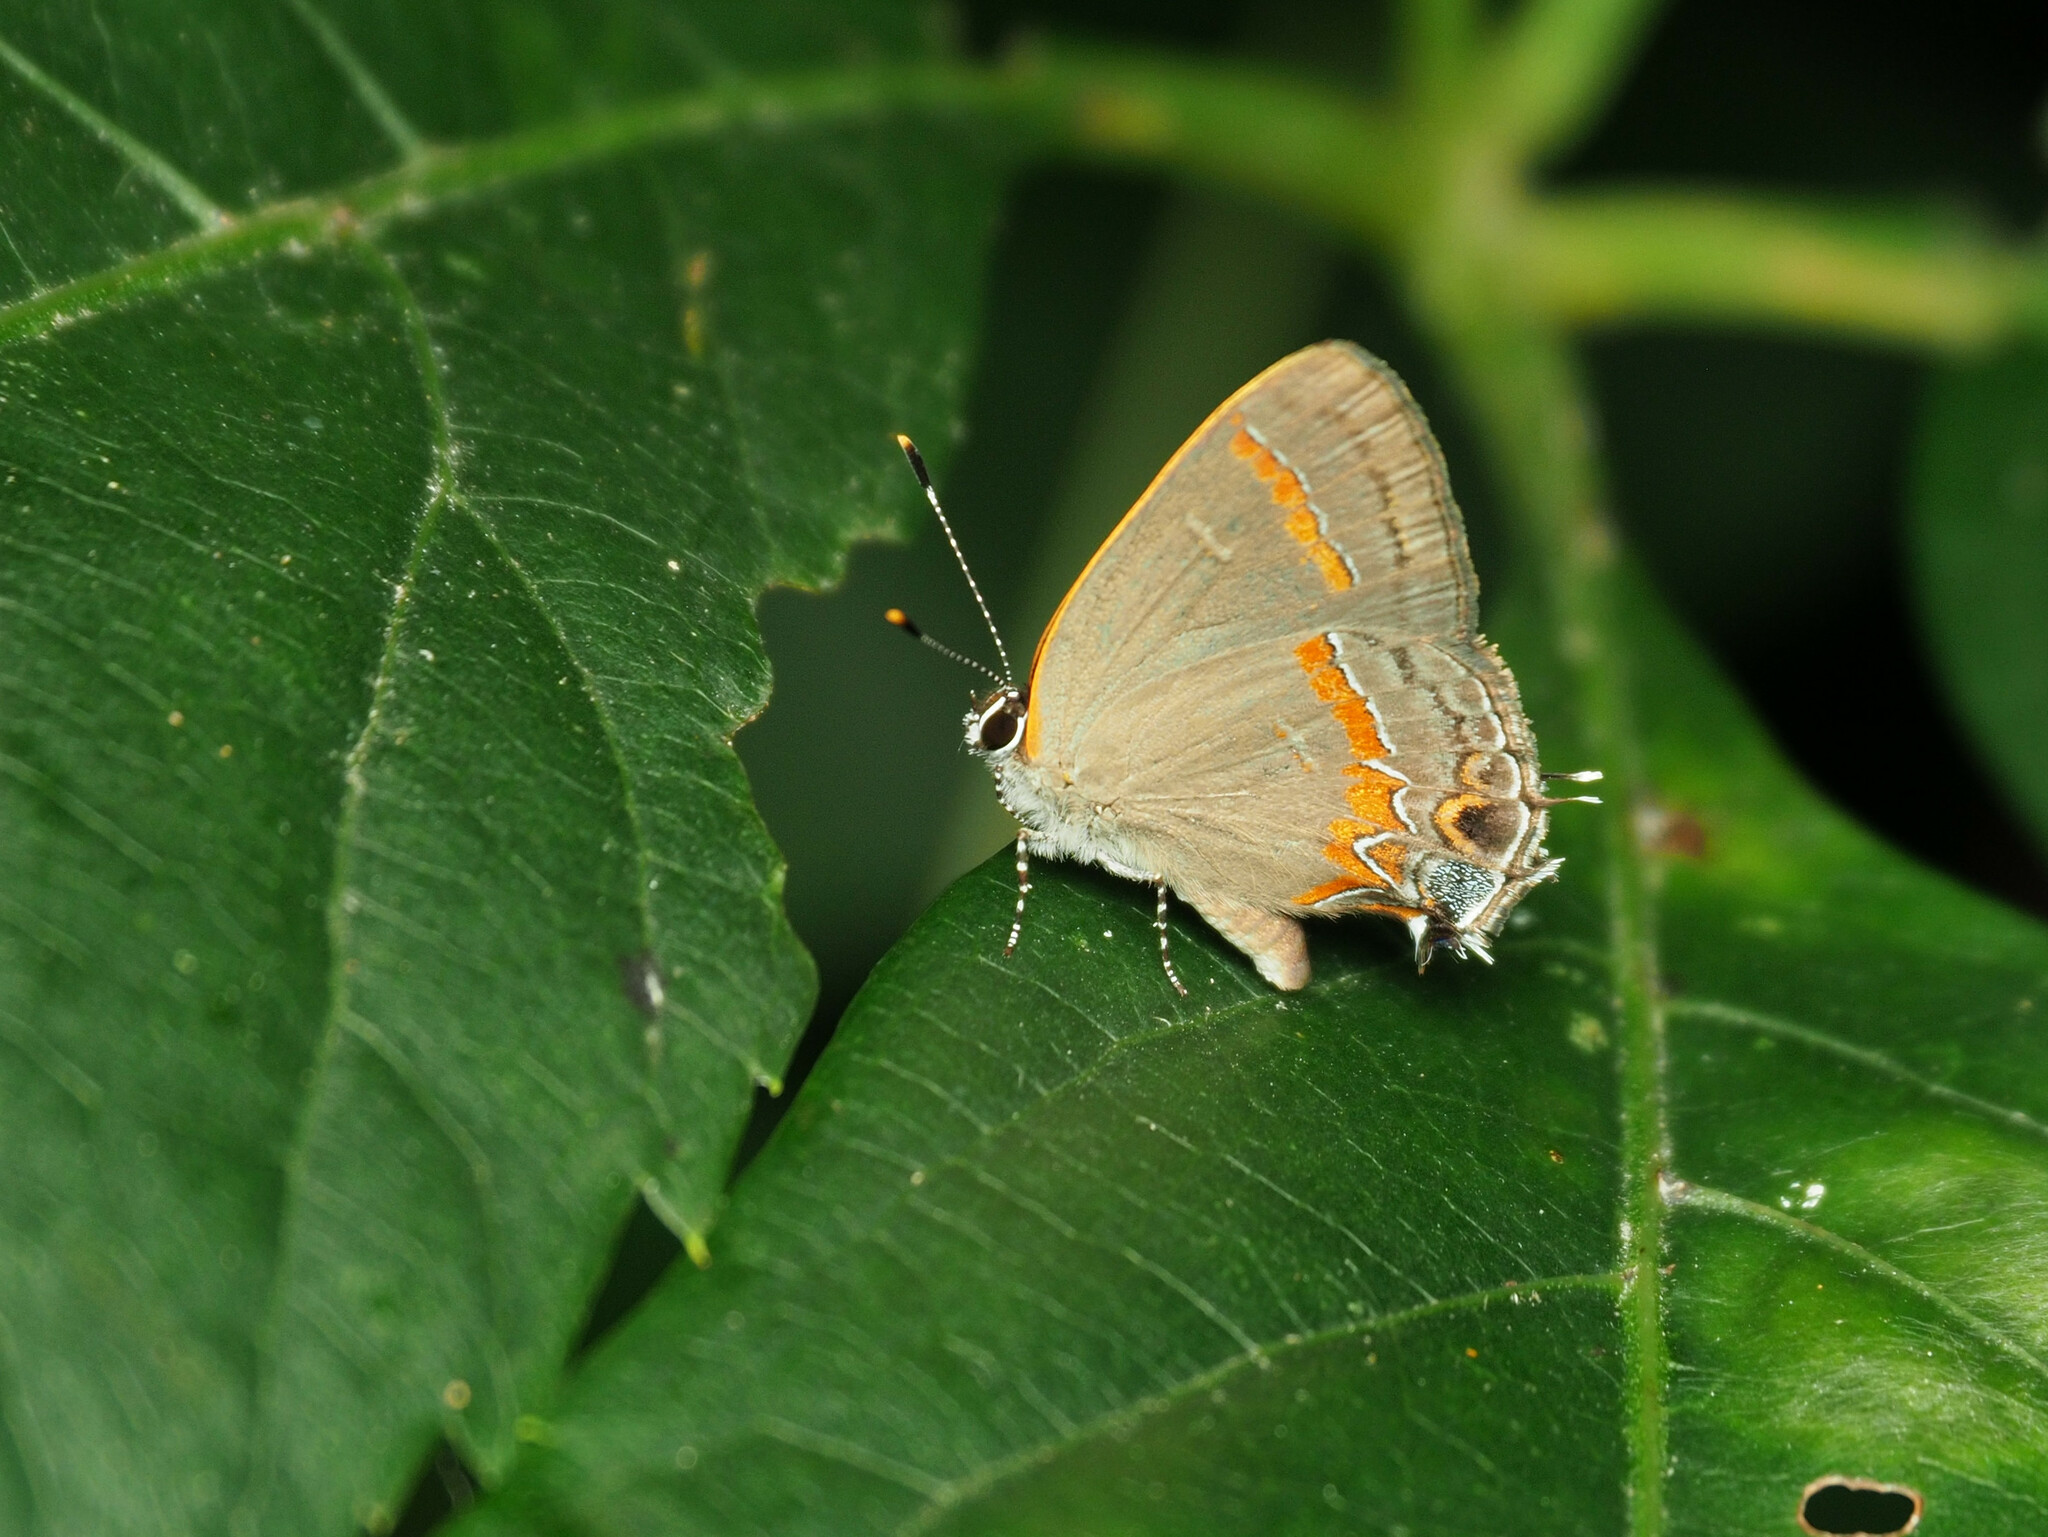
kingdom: Animalia
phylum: Arthropoda
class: Insecta
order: Lepidoptera
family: Lycaenidae
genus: Calycopis
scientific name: Calycopis cecrops
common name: Red-banded hairstreak
